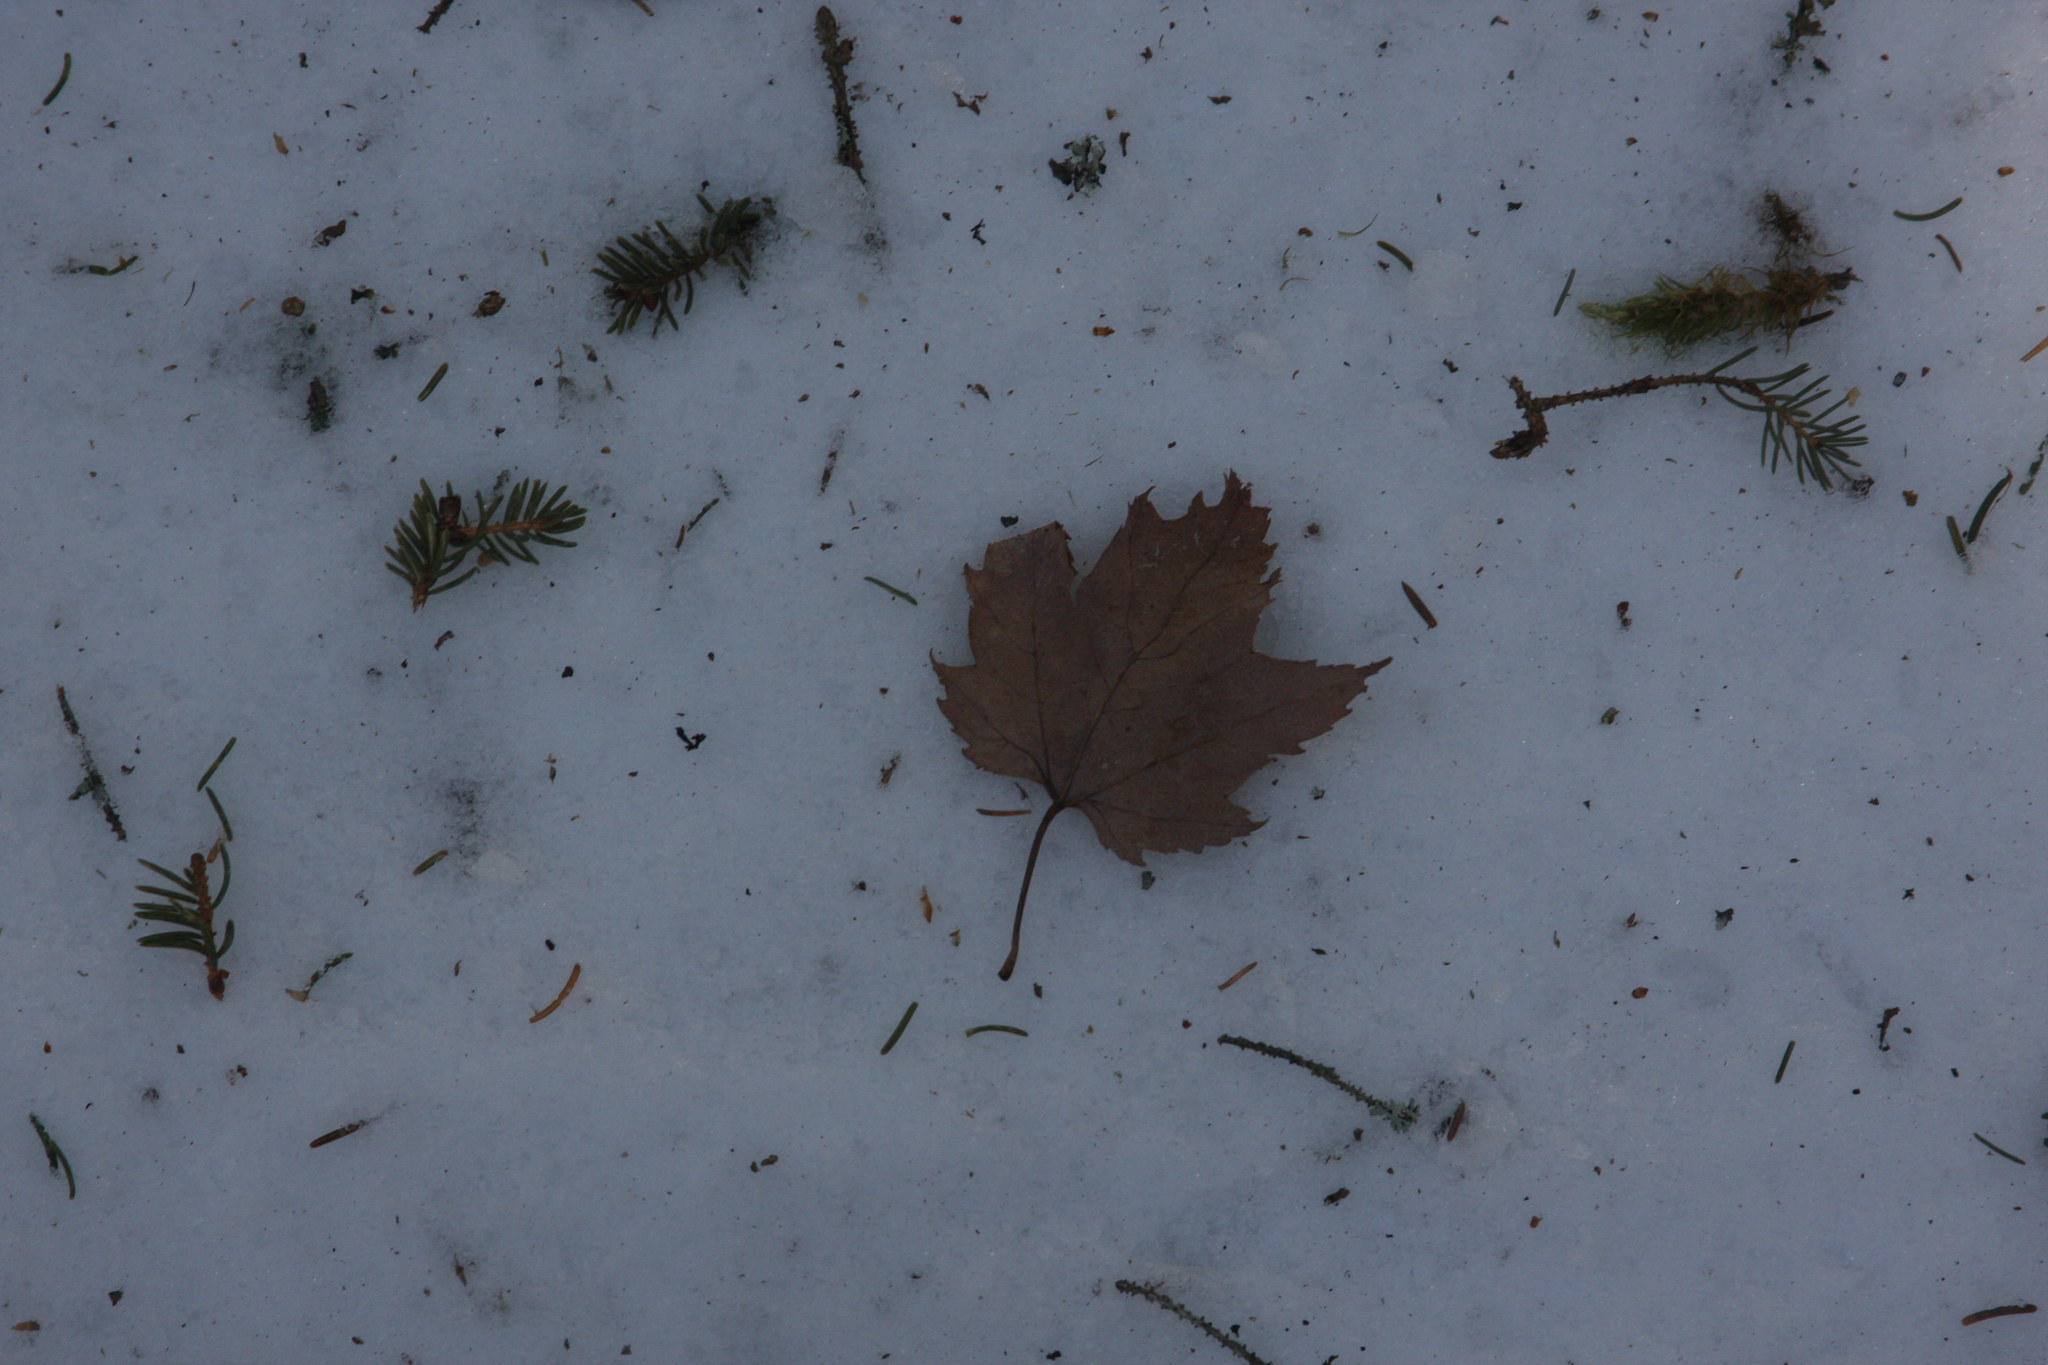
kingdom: Plantae
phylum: Tracheophyta
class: Magnoliopsida
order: Sapindales
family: Sapindaceae
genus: Acer
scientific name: Acer rubrum
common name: Red maple
